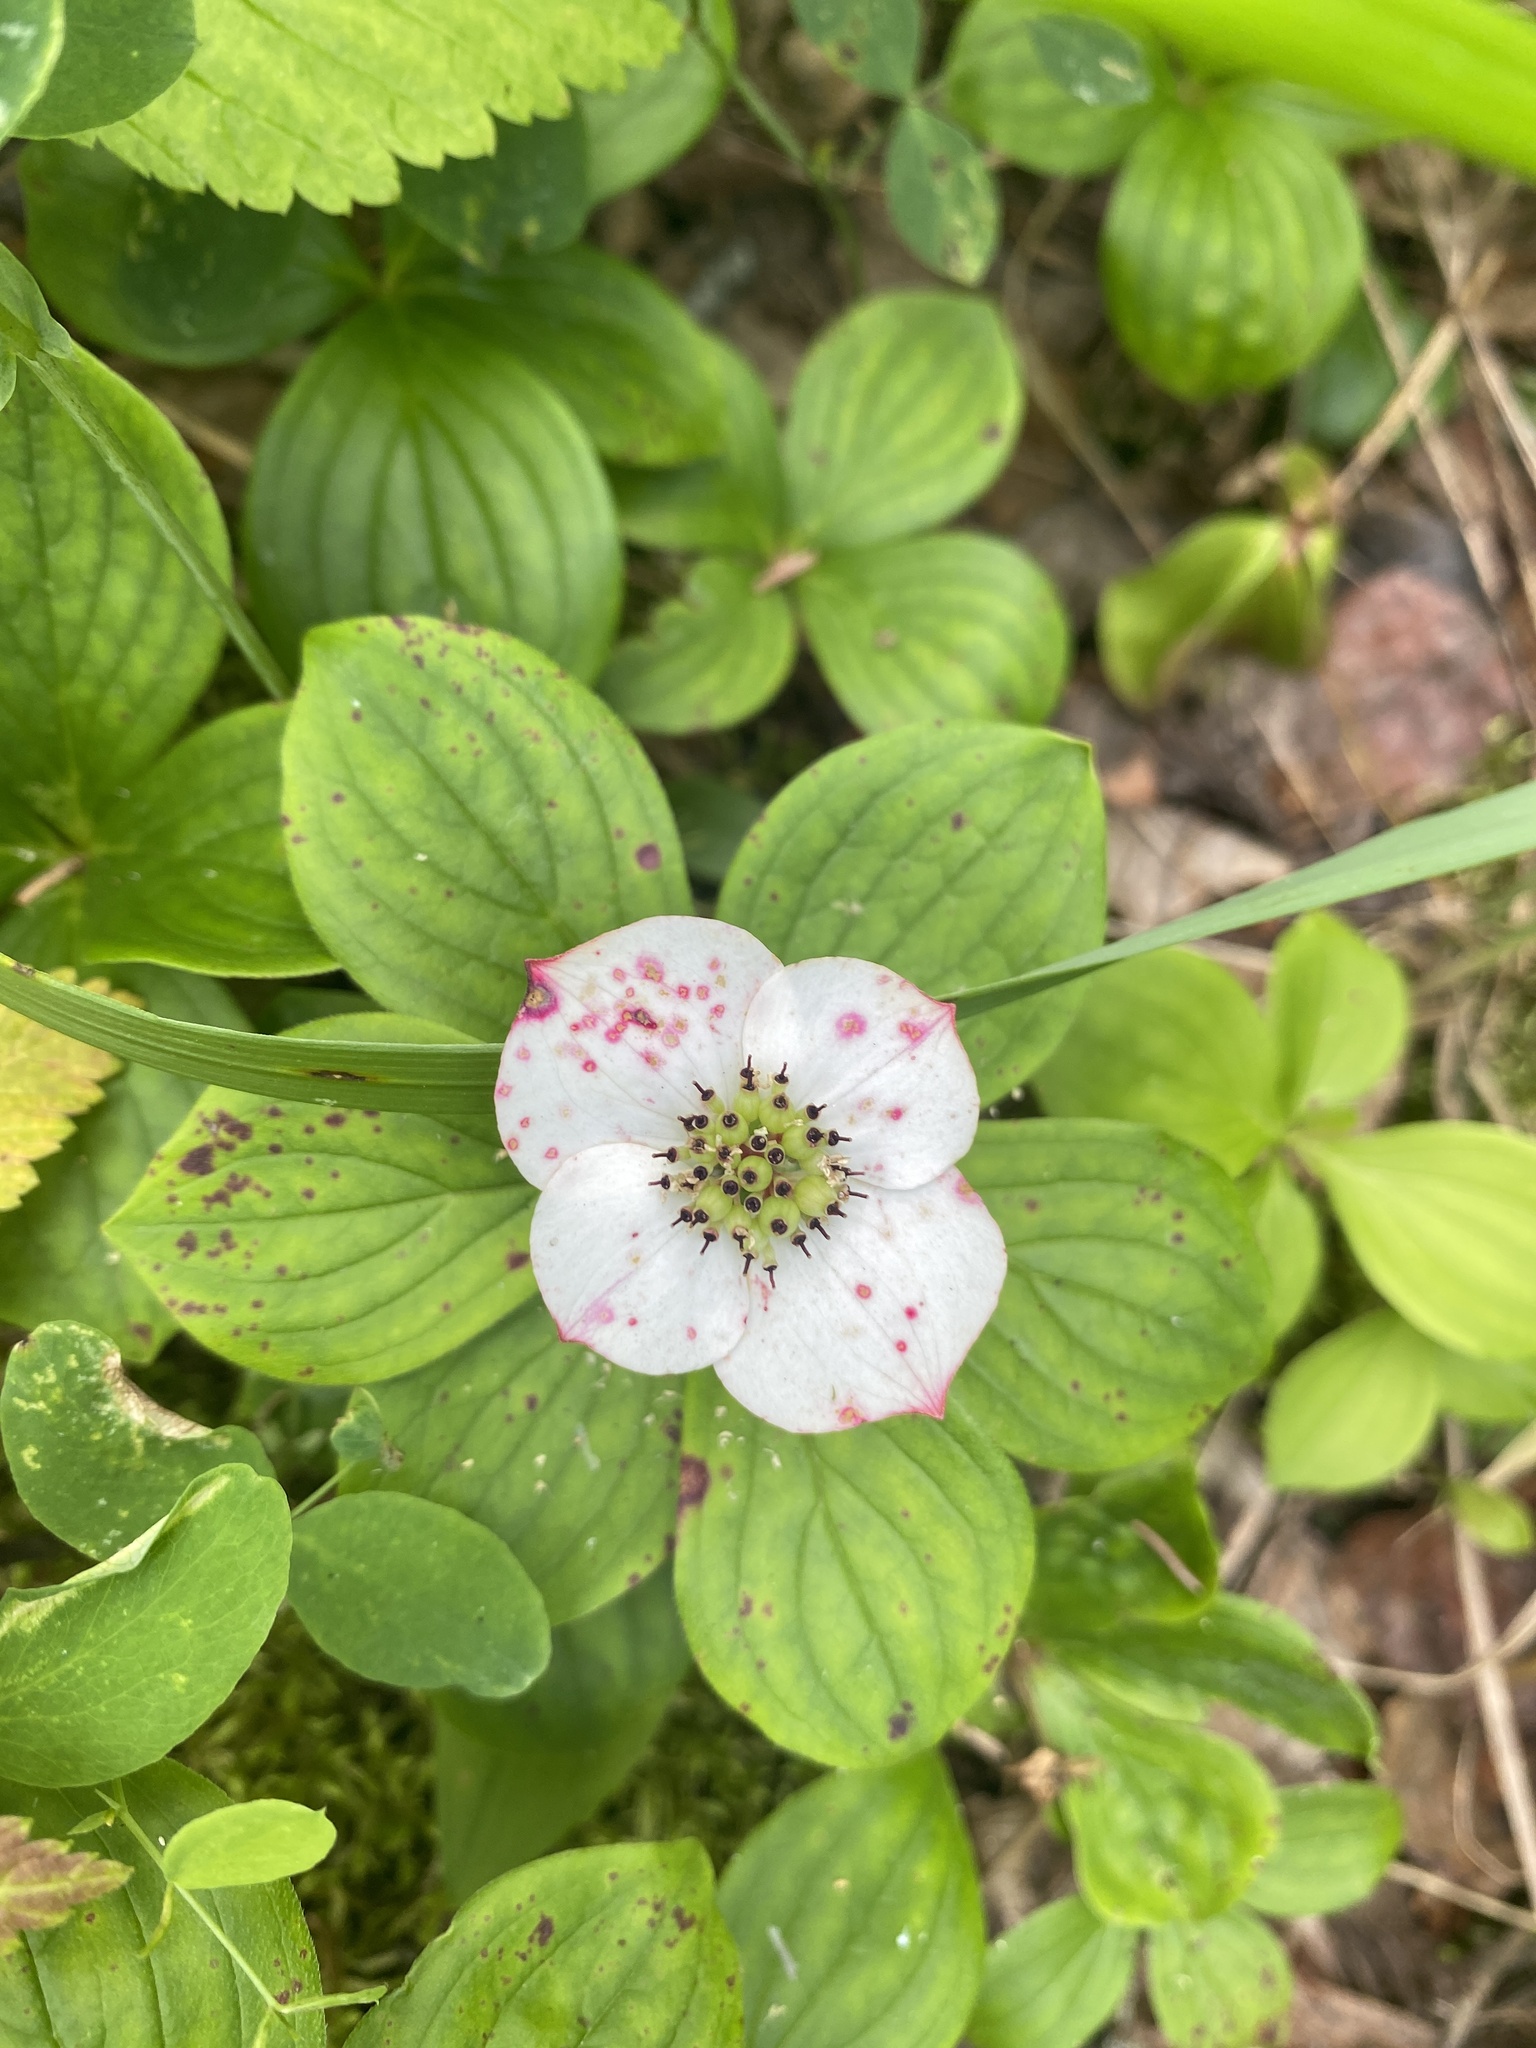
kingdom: Plantae
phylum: Tracheophyta
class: Magnoliopsida
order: Cornales
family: Cornaceae
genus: Cornus
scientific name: Cornus canadensis
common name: Creeping dogwood
